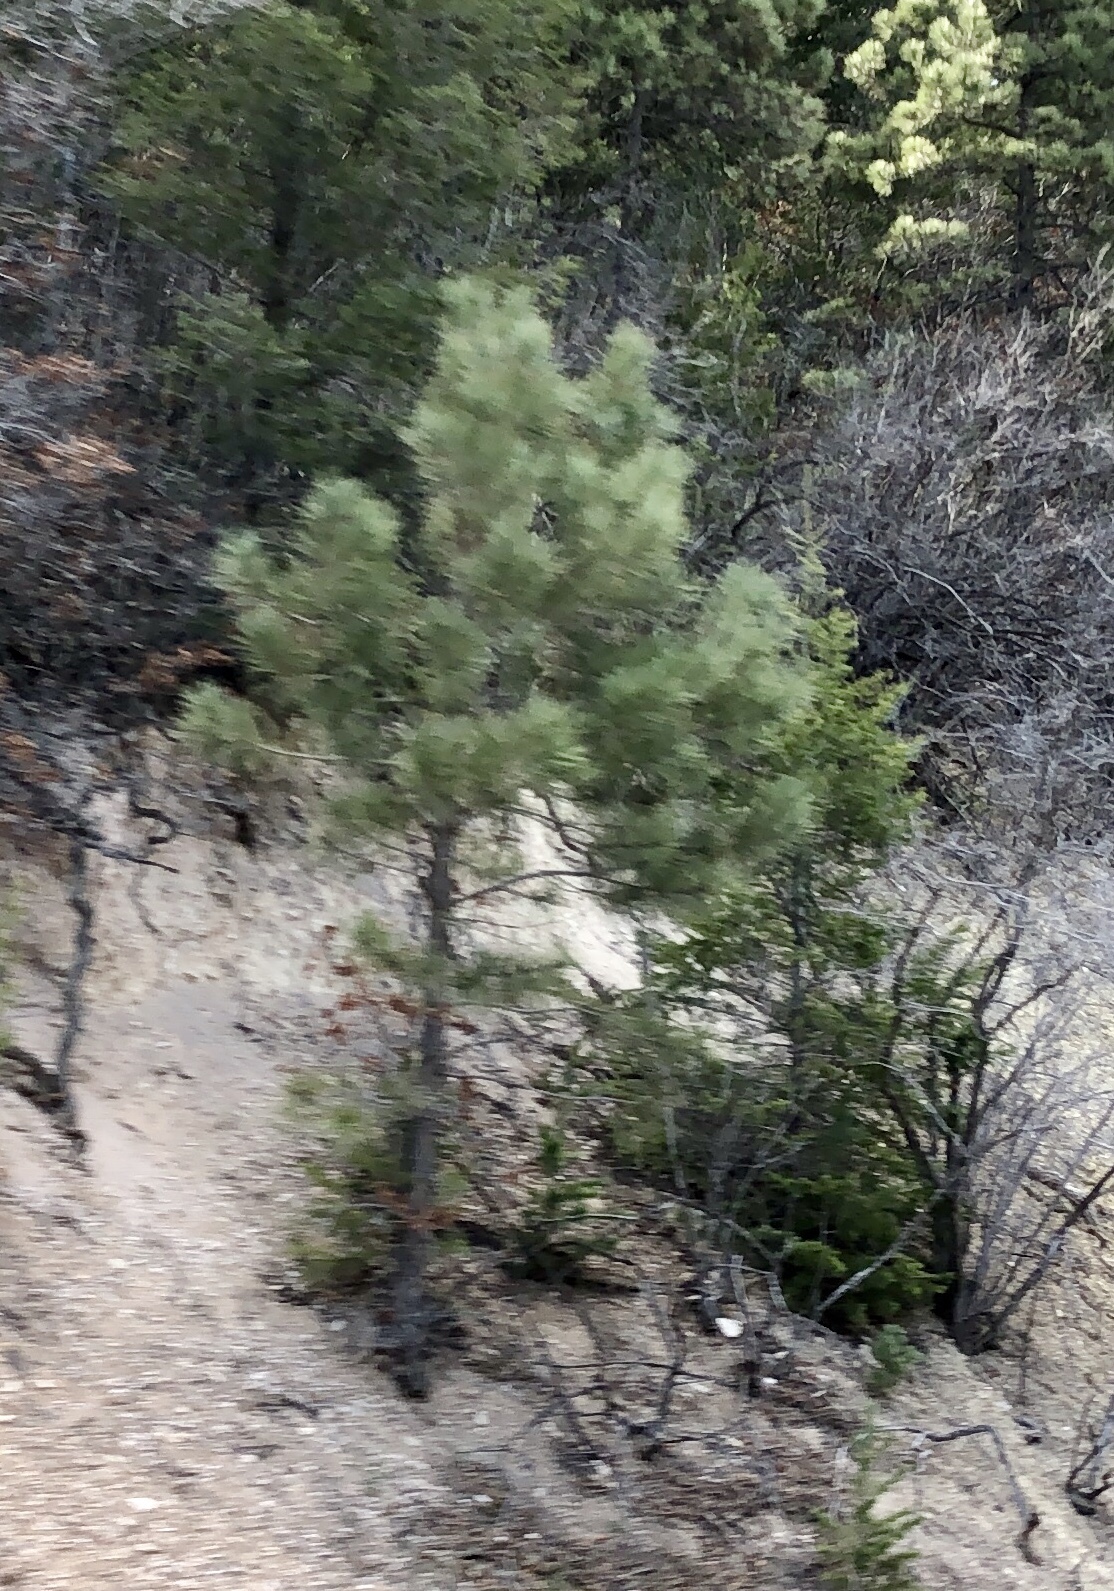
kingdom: Plantae
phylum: Tracheophyta
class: Pinopsida
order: Pinales
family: Pinaceae
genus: Pinus
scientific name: Pinus ponderosa
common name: Western yellow-pine
